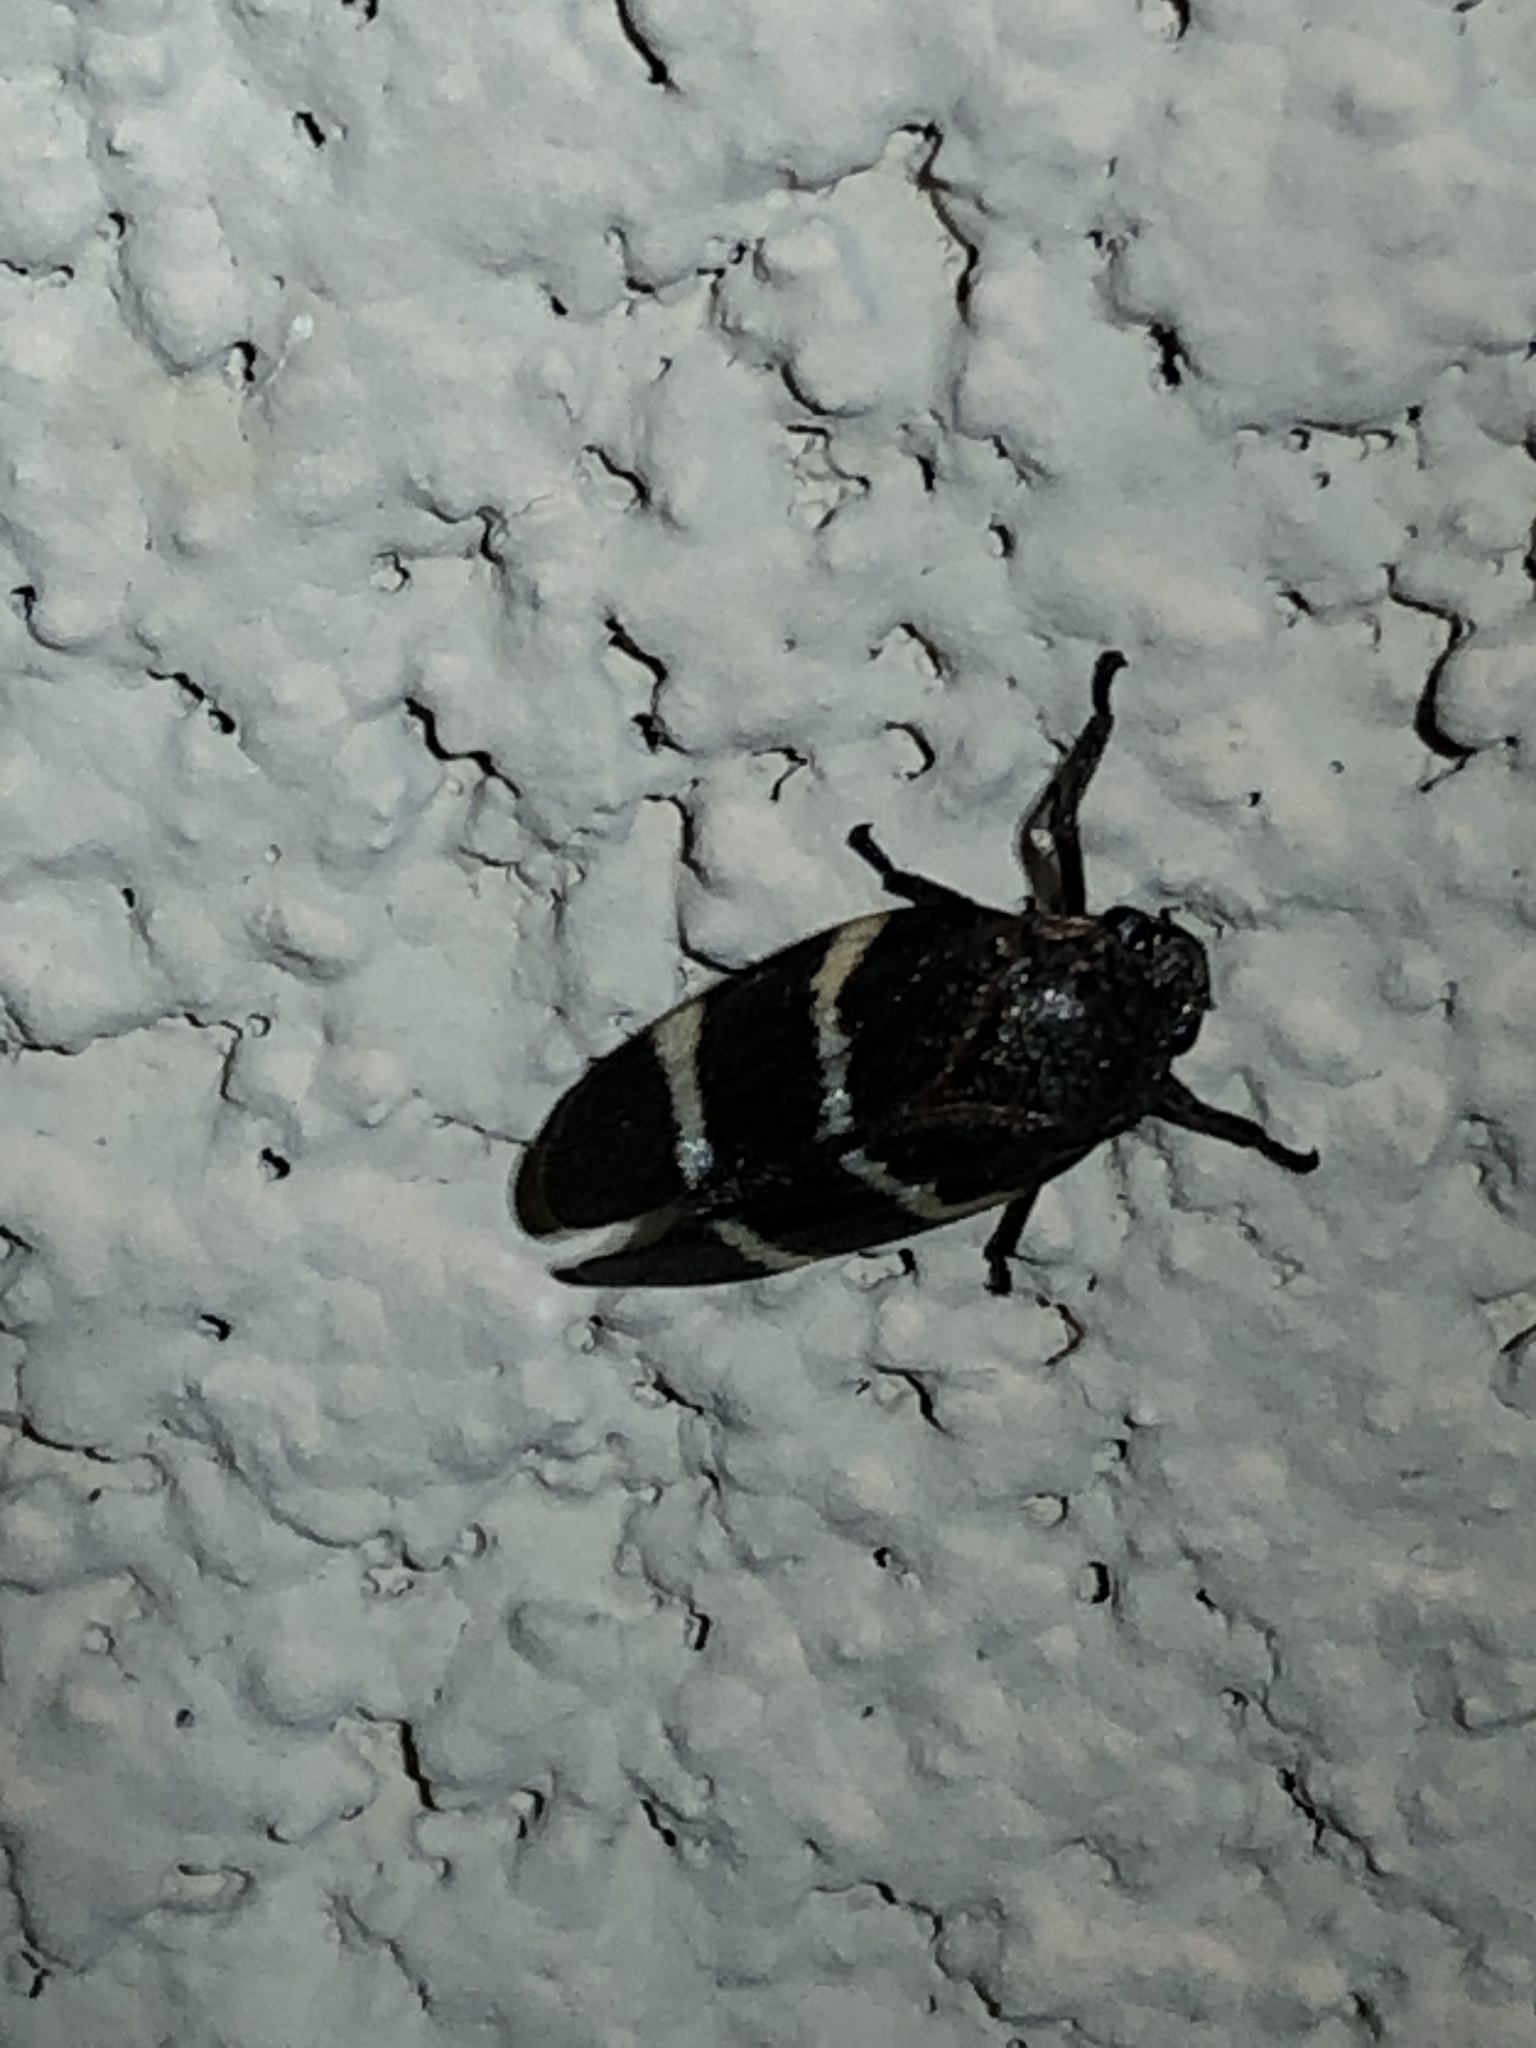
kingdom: Animalia
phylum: Arthropoda
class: Insecta
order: Hemiptera
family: Cercopidae
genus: Aeneolamia
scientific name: Aeneolamia albofasciata
